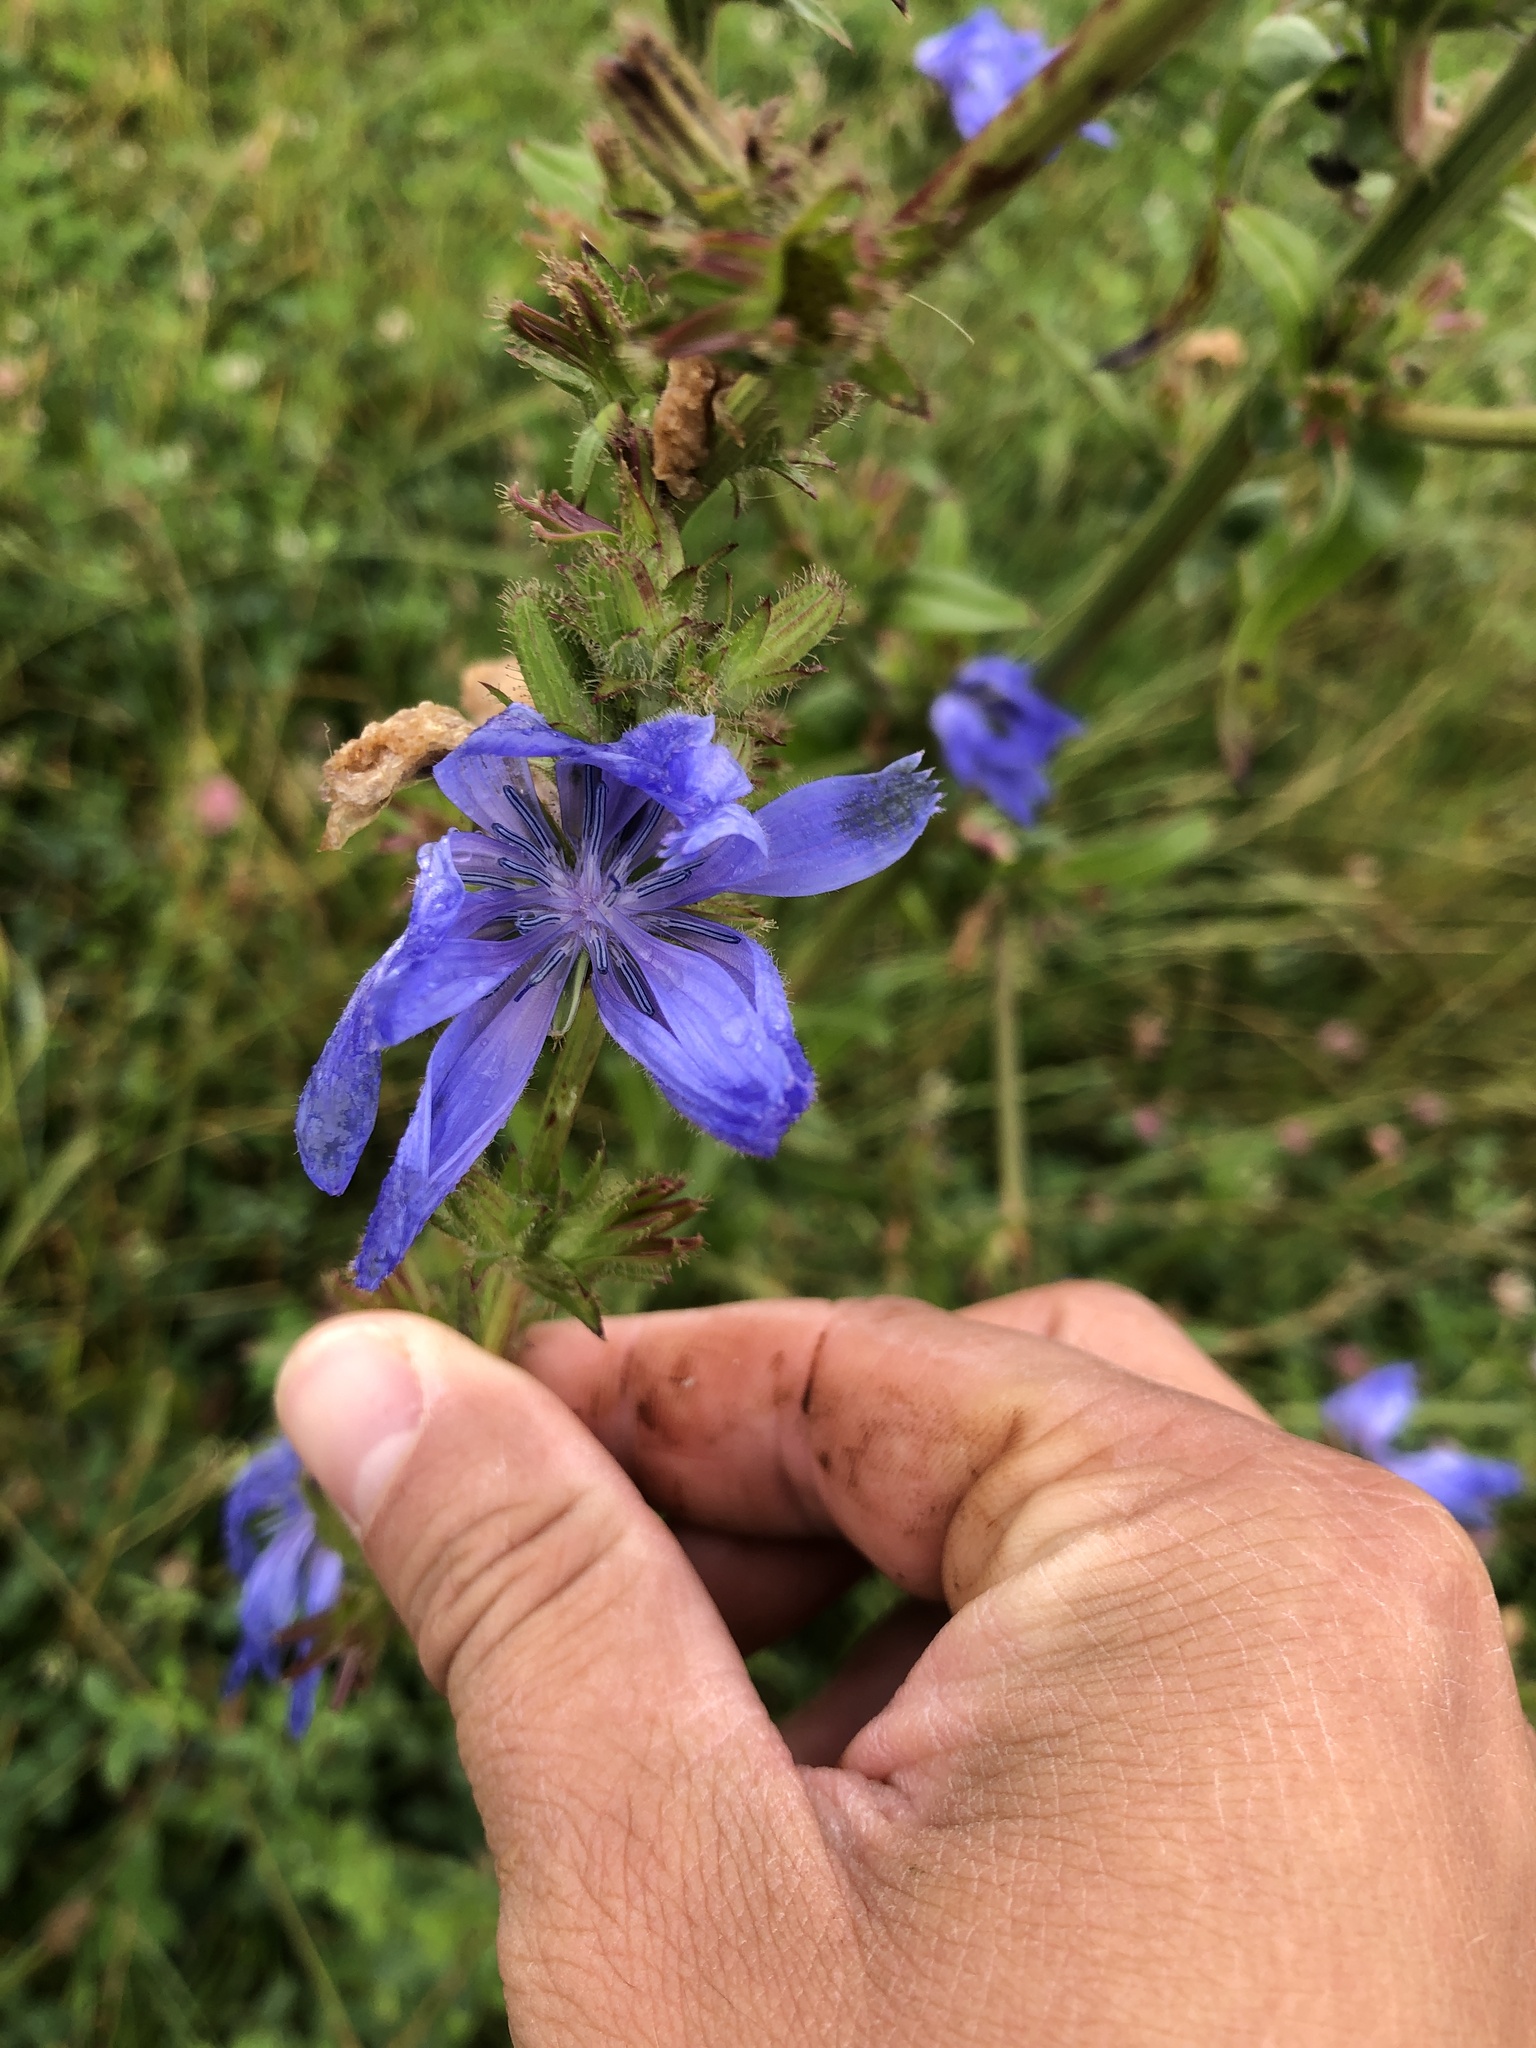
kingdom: Plantae
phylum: Tracheophyta
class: Magnoliopsida
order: Asterales
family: Asteraceae
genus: Cichorium
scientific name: Cichorium intybus
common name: Chicory
